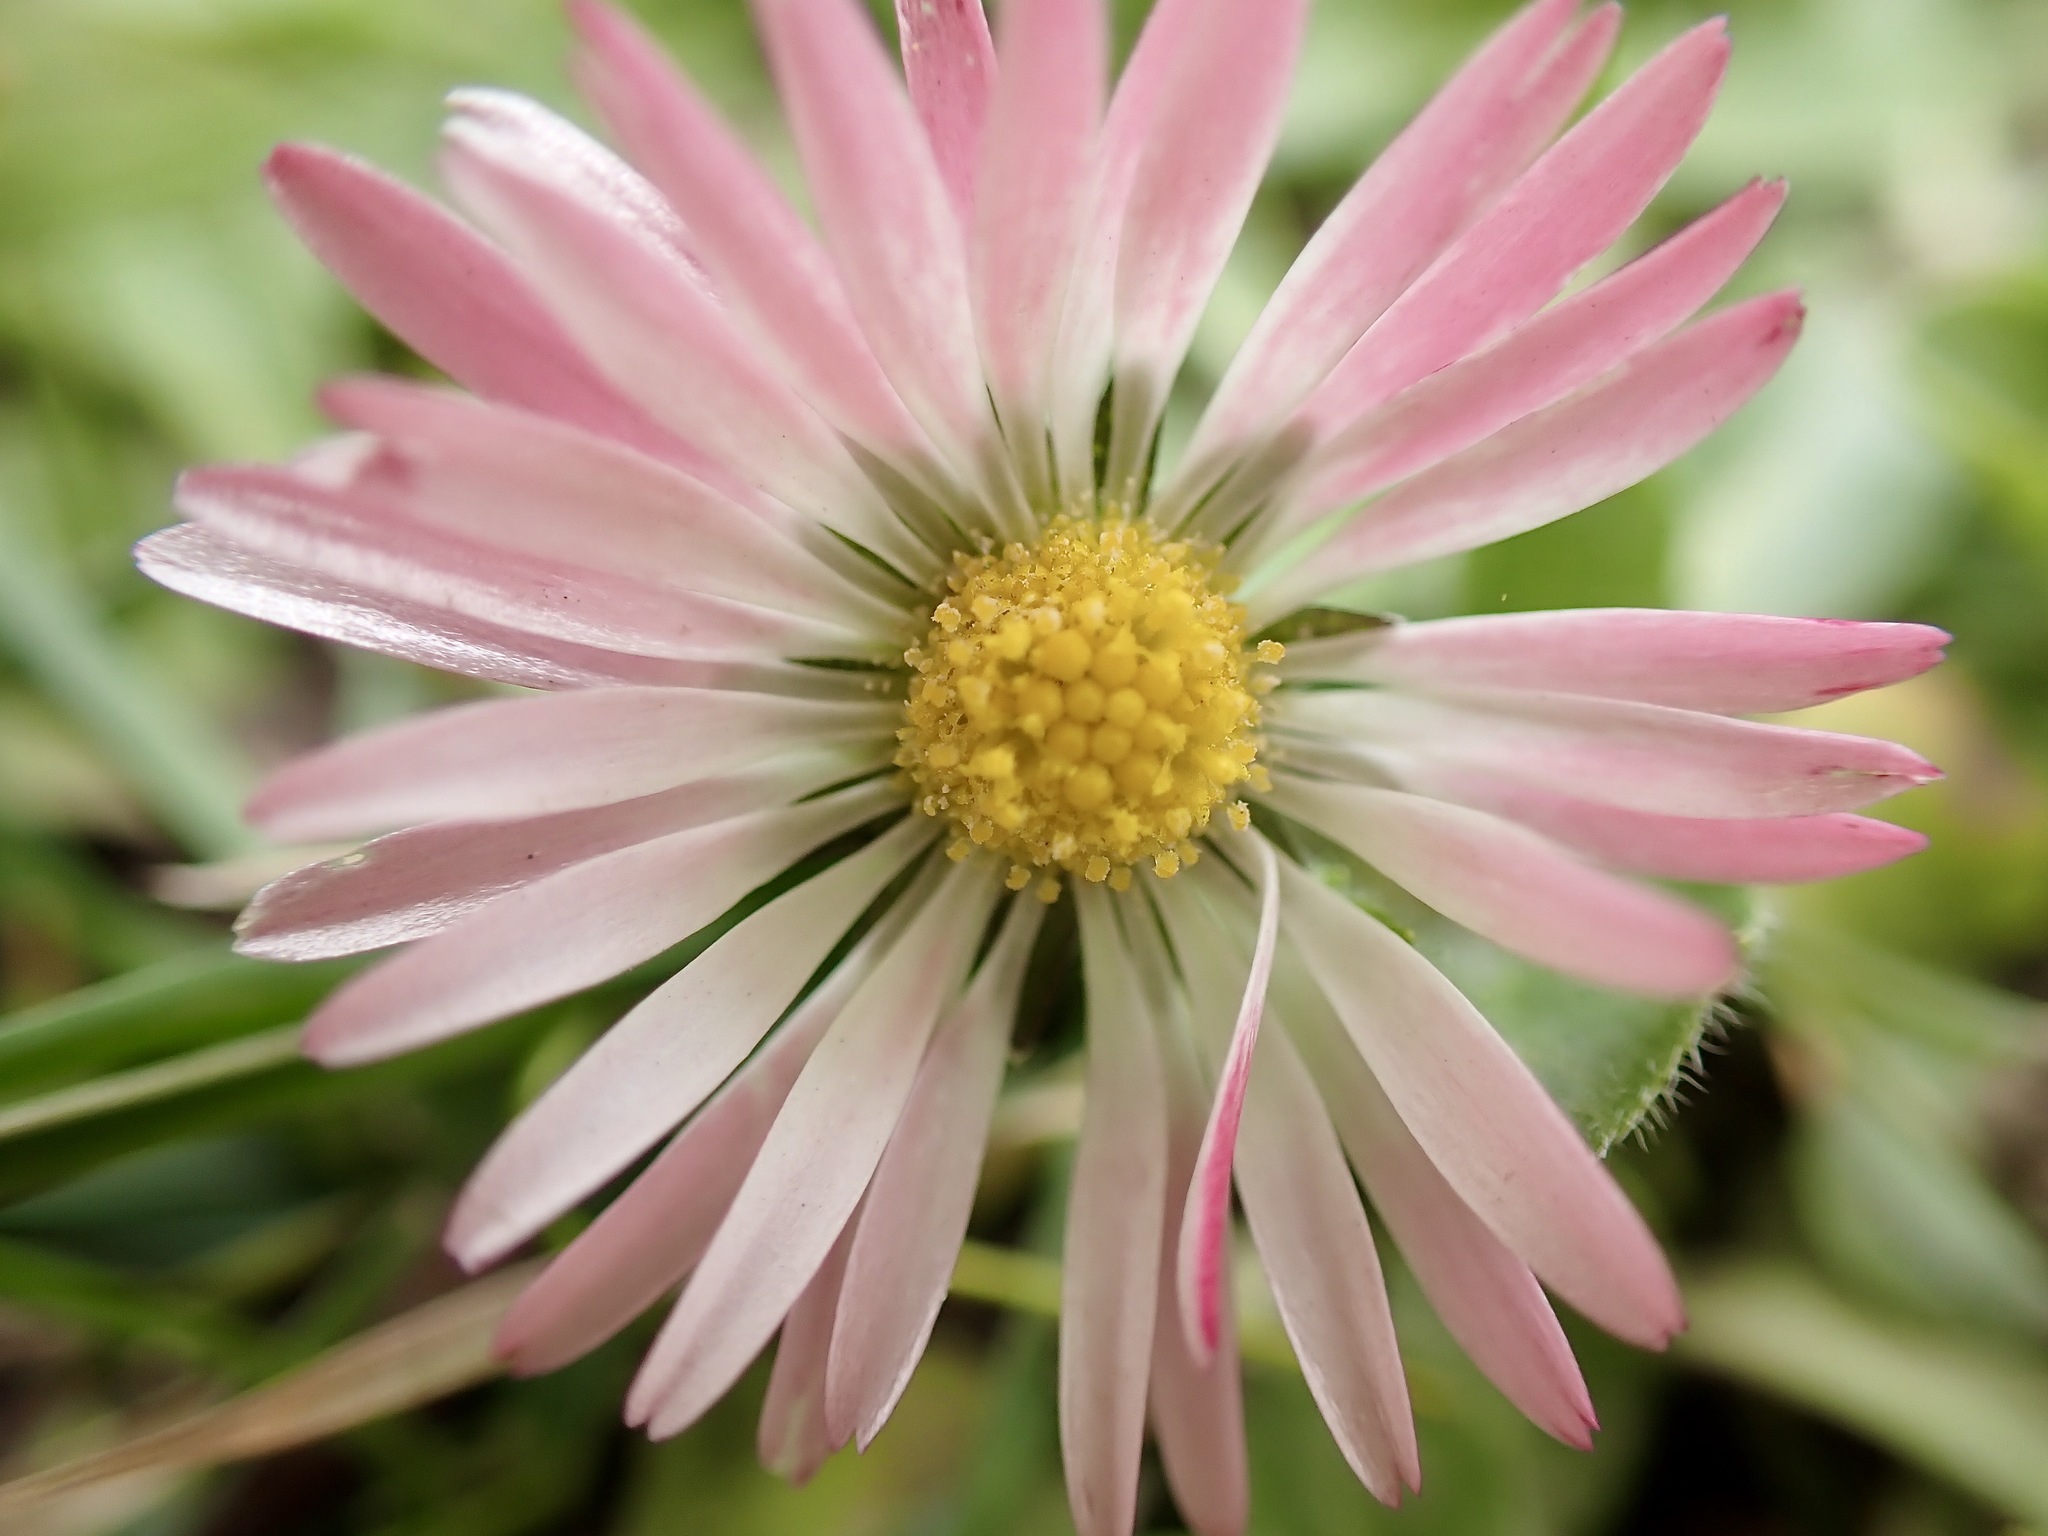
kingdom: Plantae
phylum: Tracheophyta
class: Magnoliopsida
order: Asterales
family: Asteraceae
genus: Bellis
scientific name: Bellis perennis
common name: Lawndaisy
